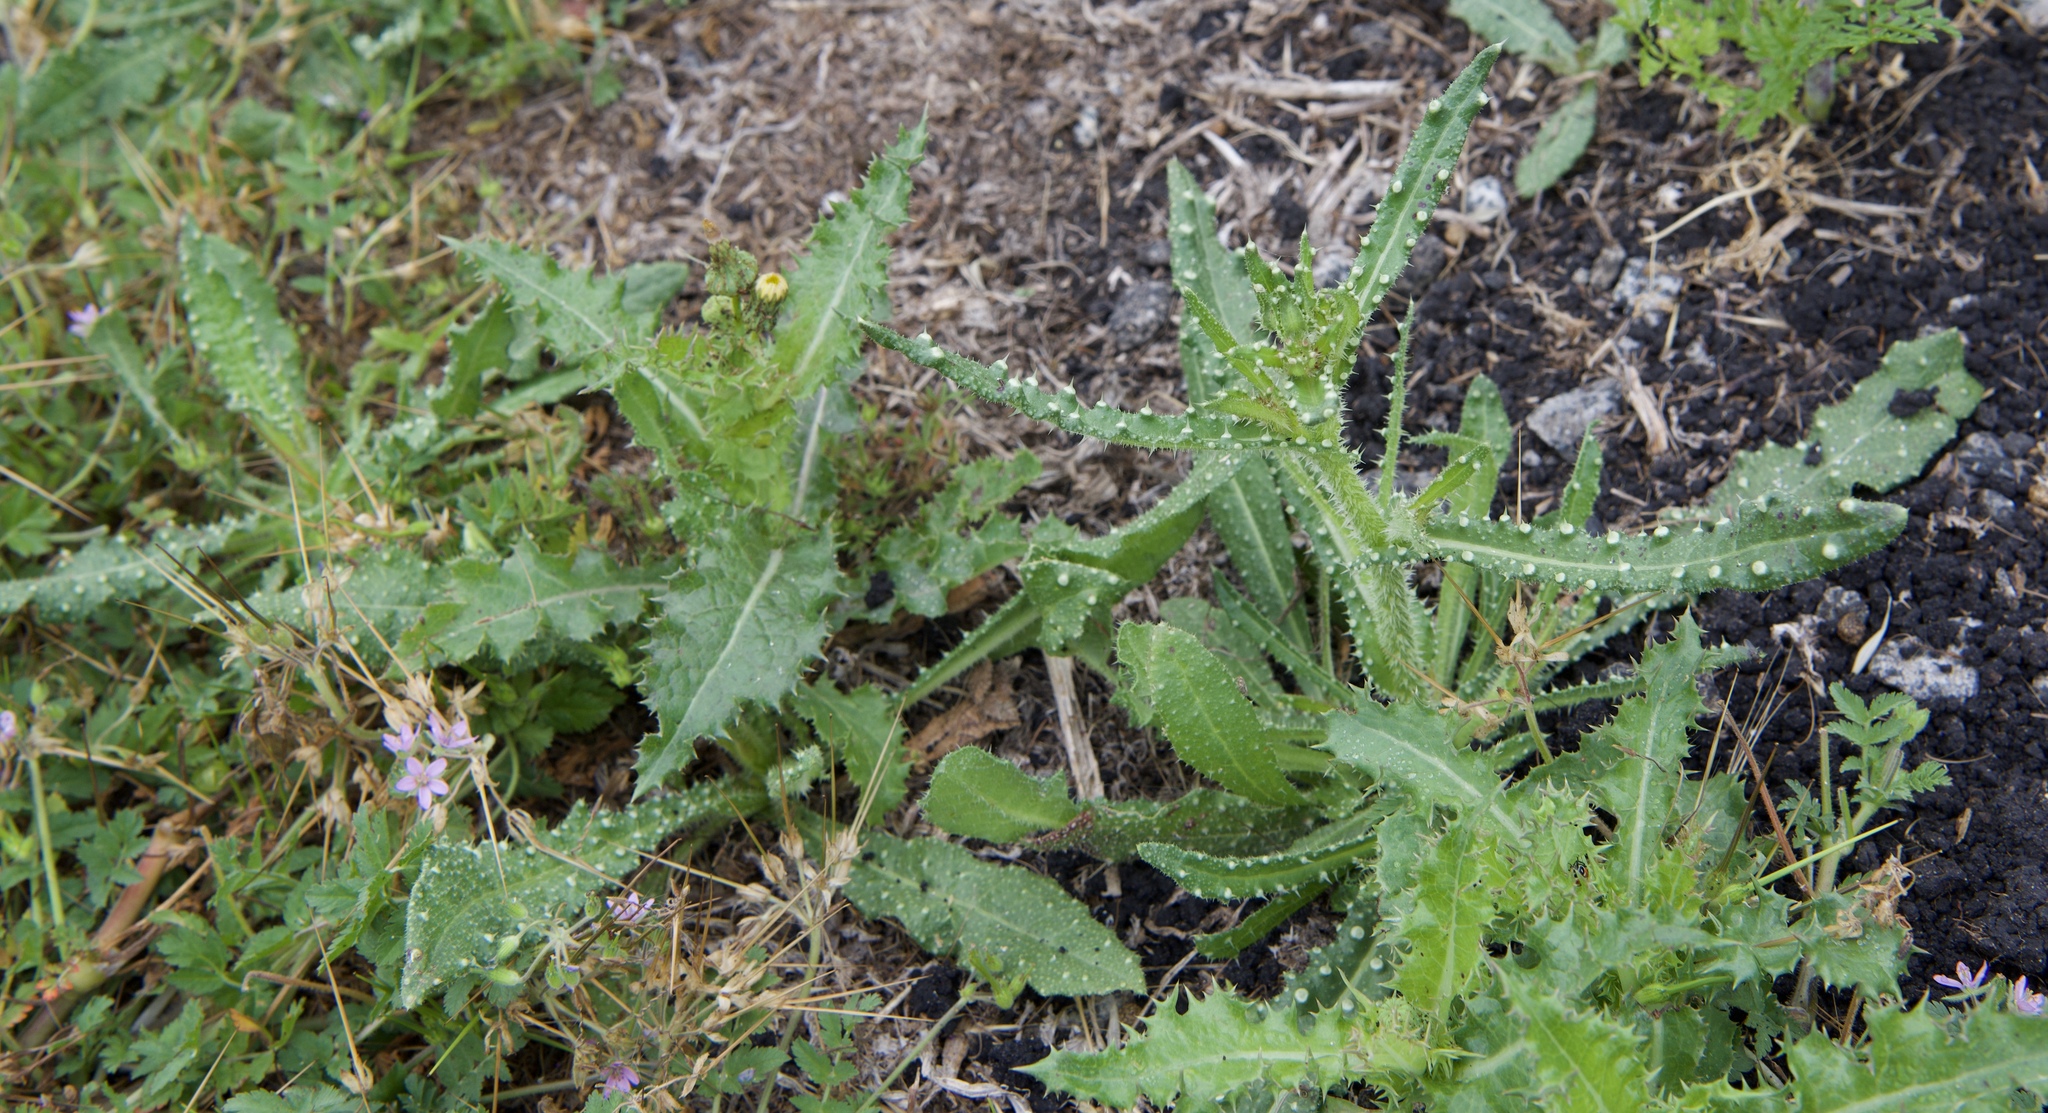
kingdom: Plantae
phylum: Tracheophyta
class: Magnoliopsida
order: Asterales
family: Asteraceae
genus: Helminthotheca
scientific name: Helminthotheca echioides
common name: Ox-tongue
